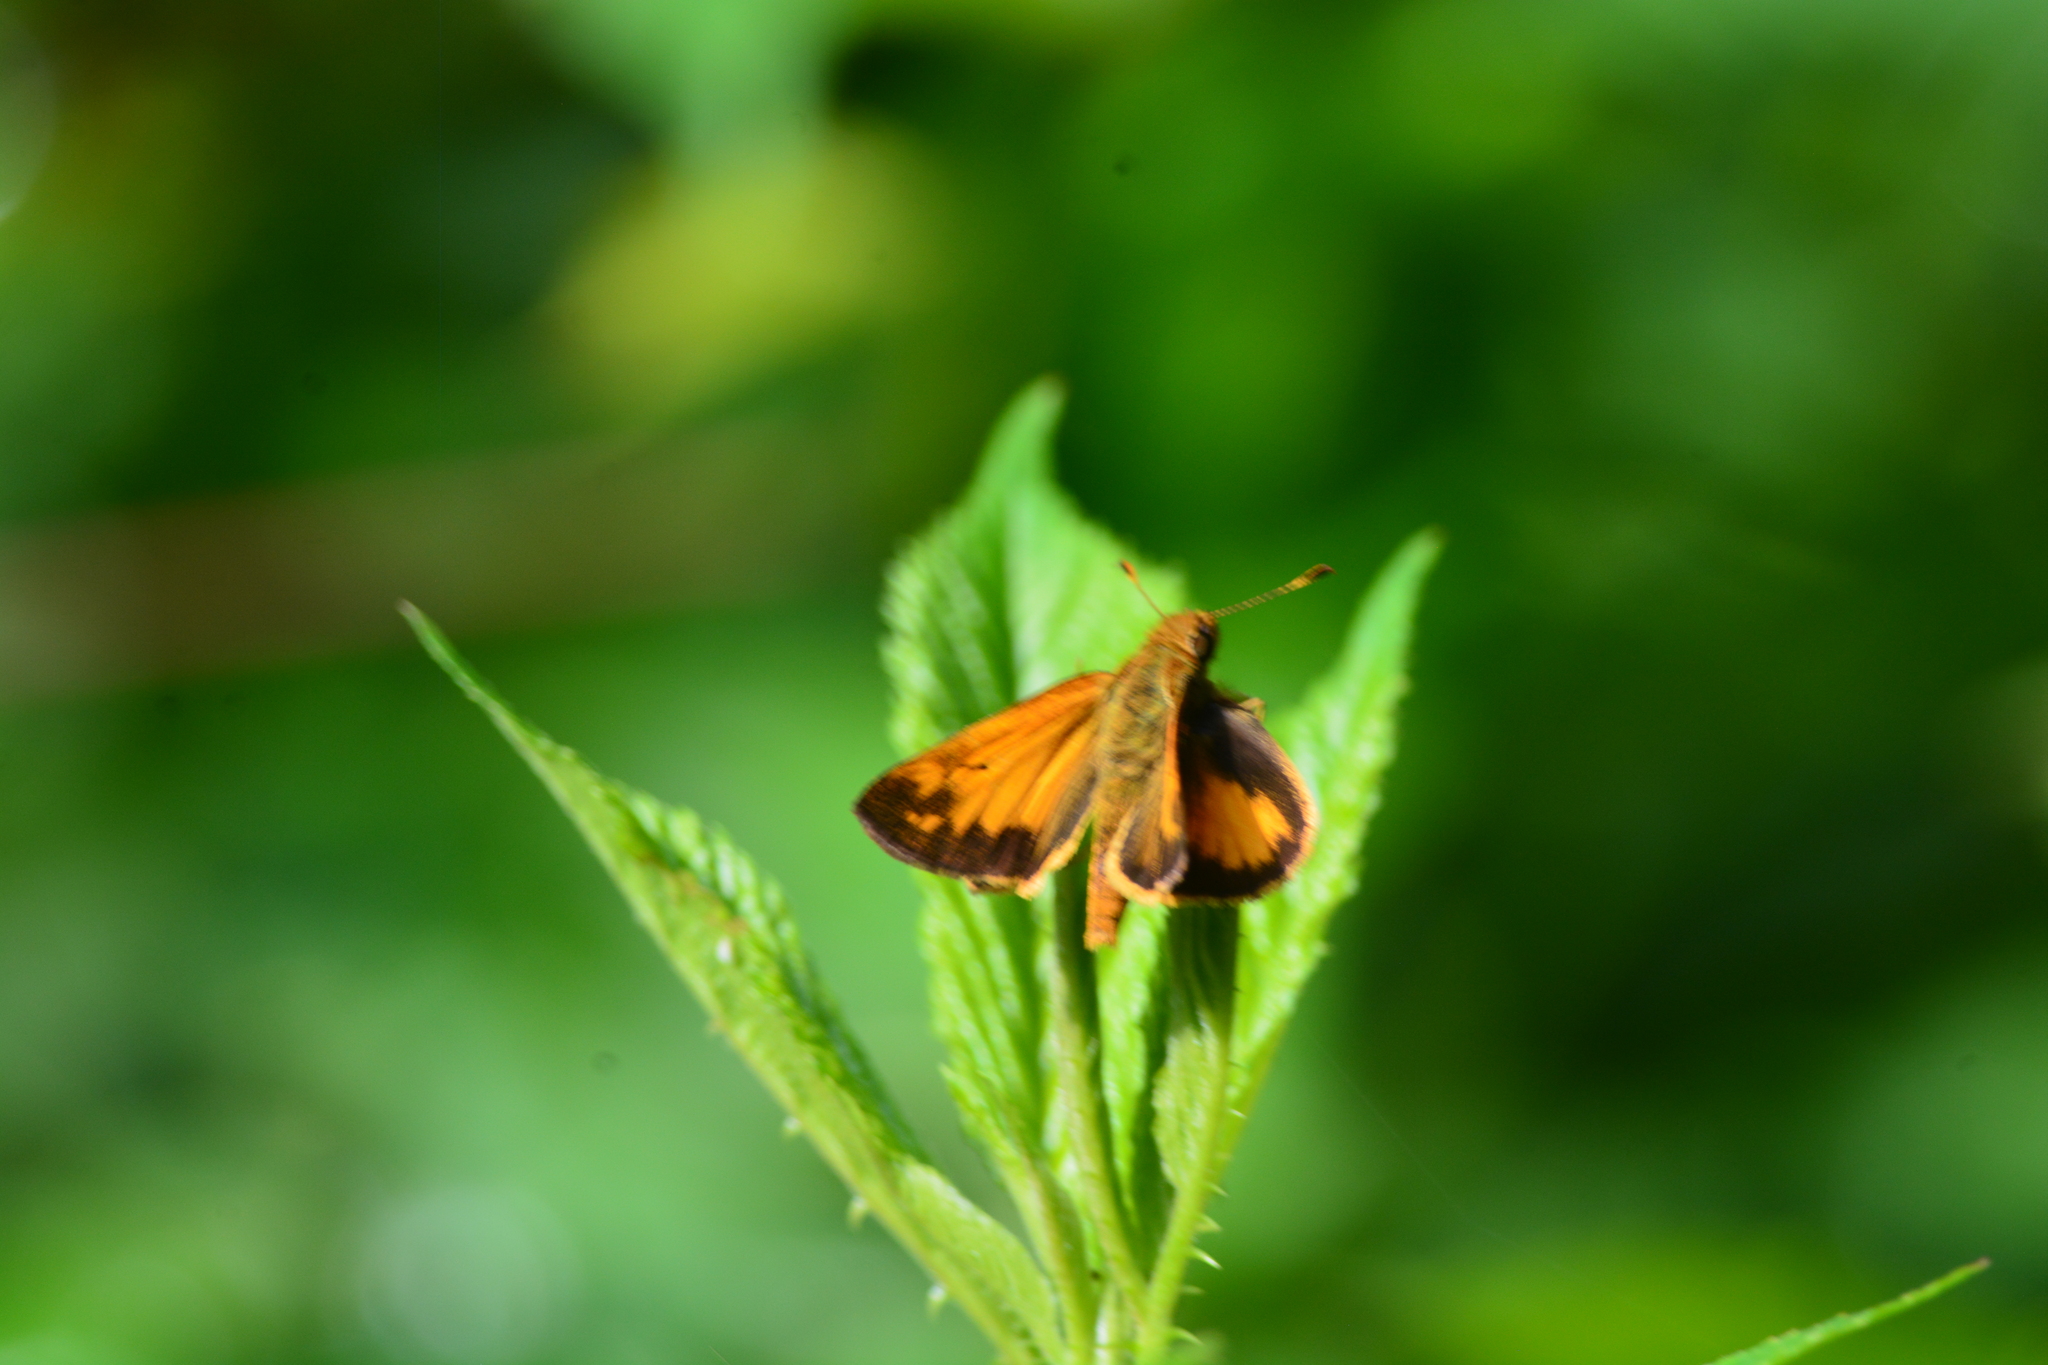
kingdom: Animalia
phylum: Arthropoda
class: Insecta
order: Lepidoptera
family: Hesperiidae
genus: Lon
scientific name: Lon zabulon
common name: Zabulon skipper
